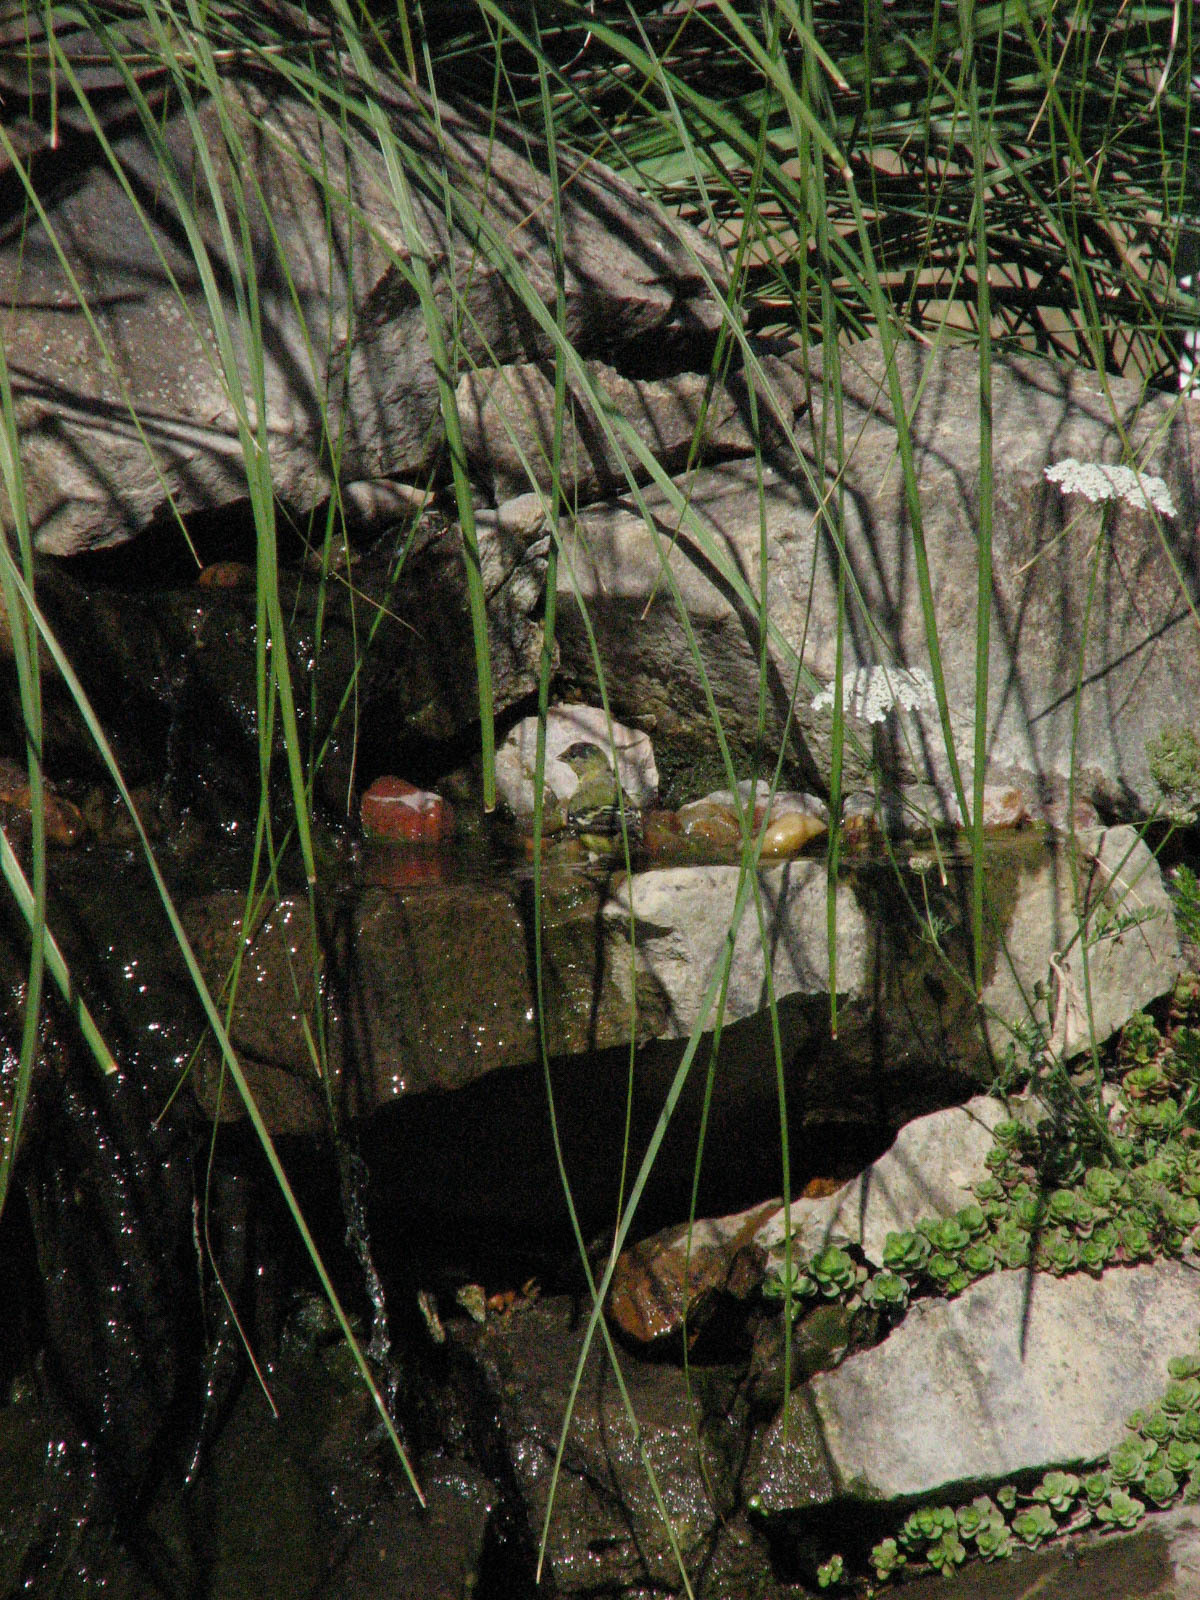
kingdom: Animalia
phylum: Chordata
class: Aves
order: Passeriformes
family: Fringillidae
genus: Spinus
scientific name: Spinus psaltria
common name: Lesser goldfinch
